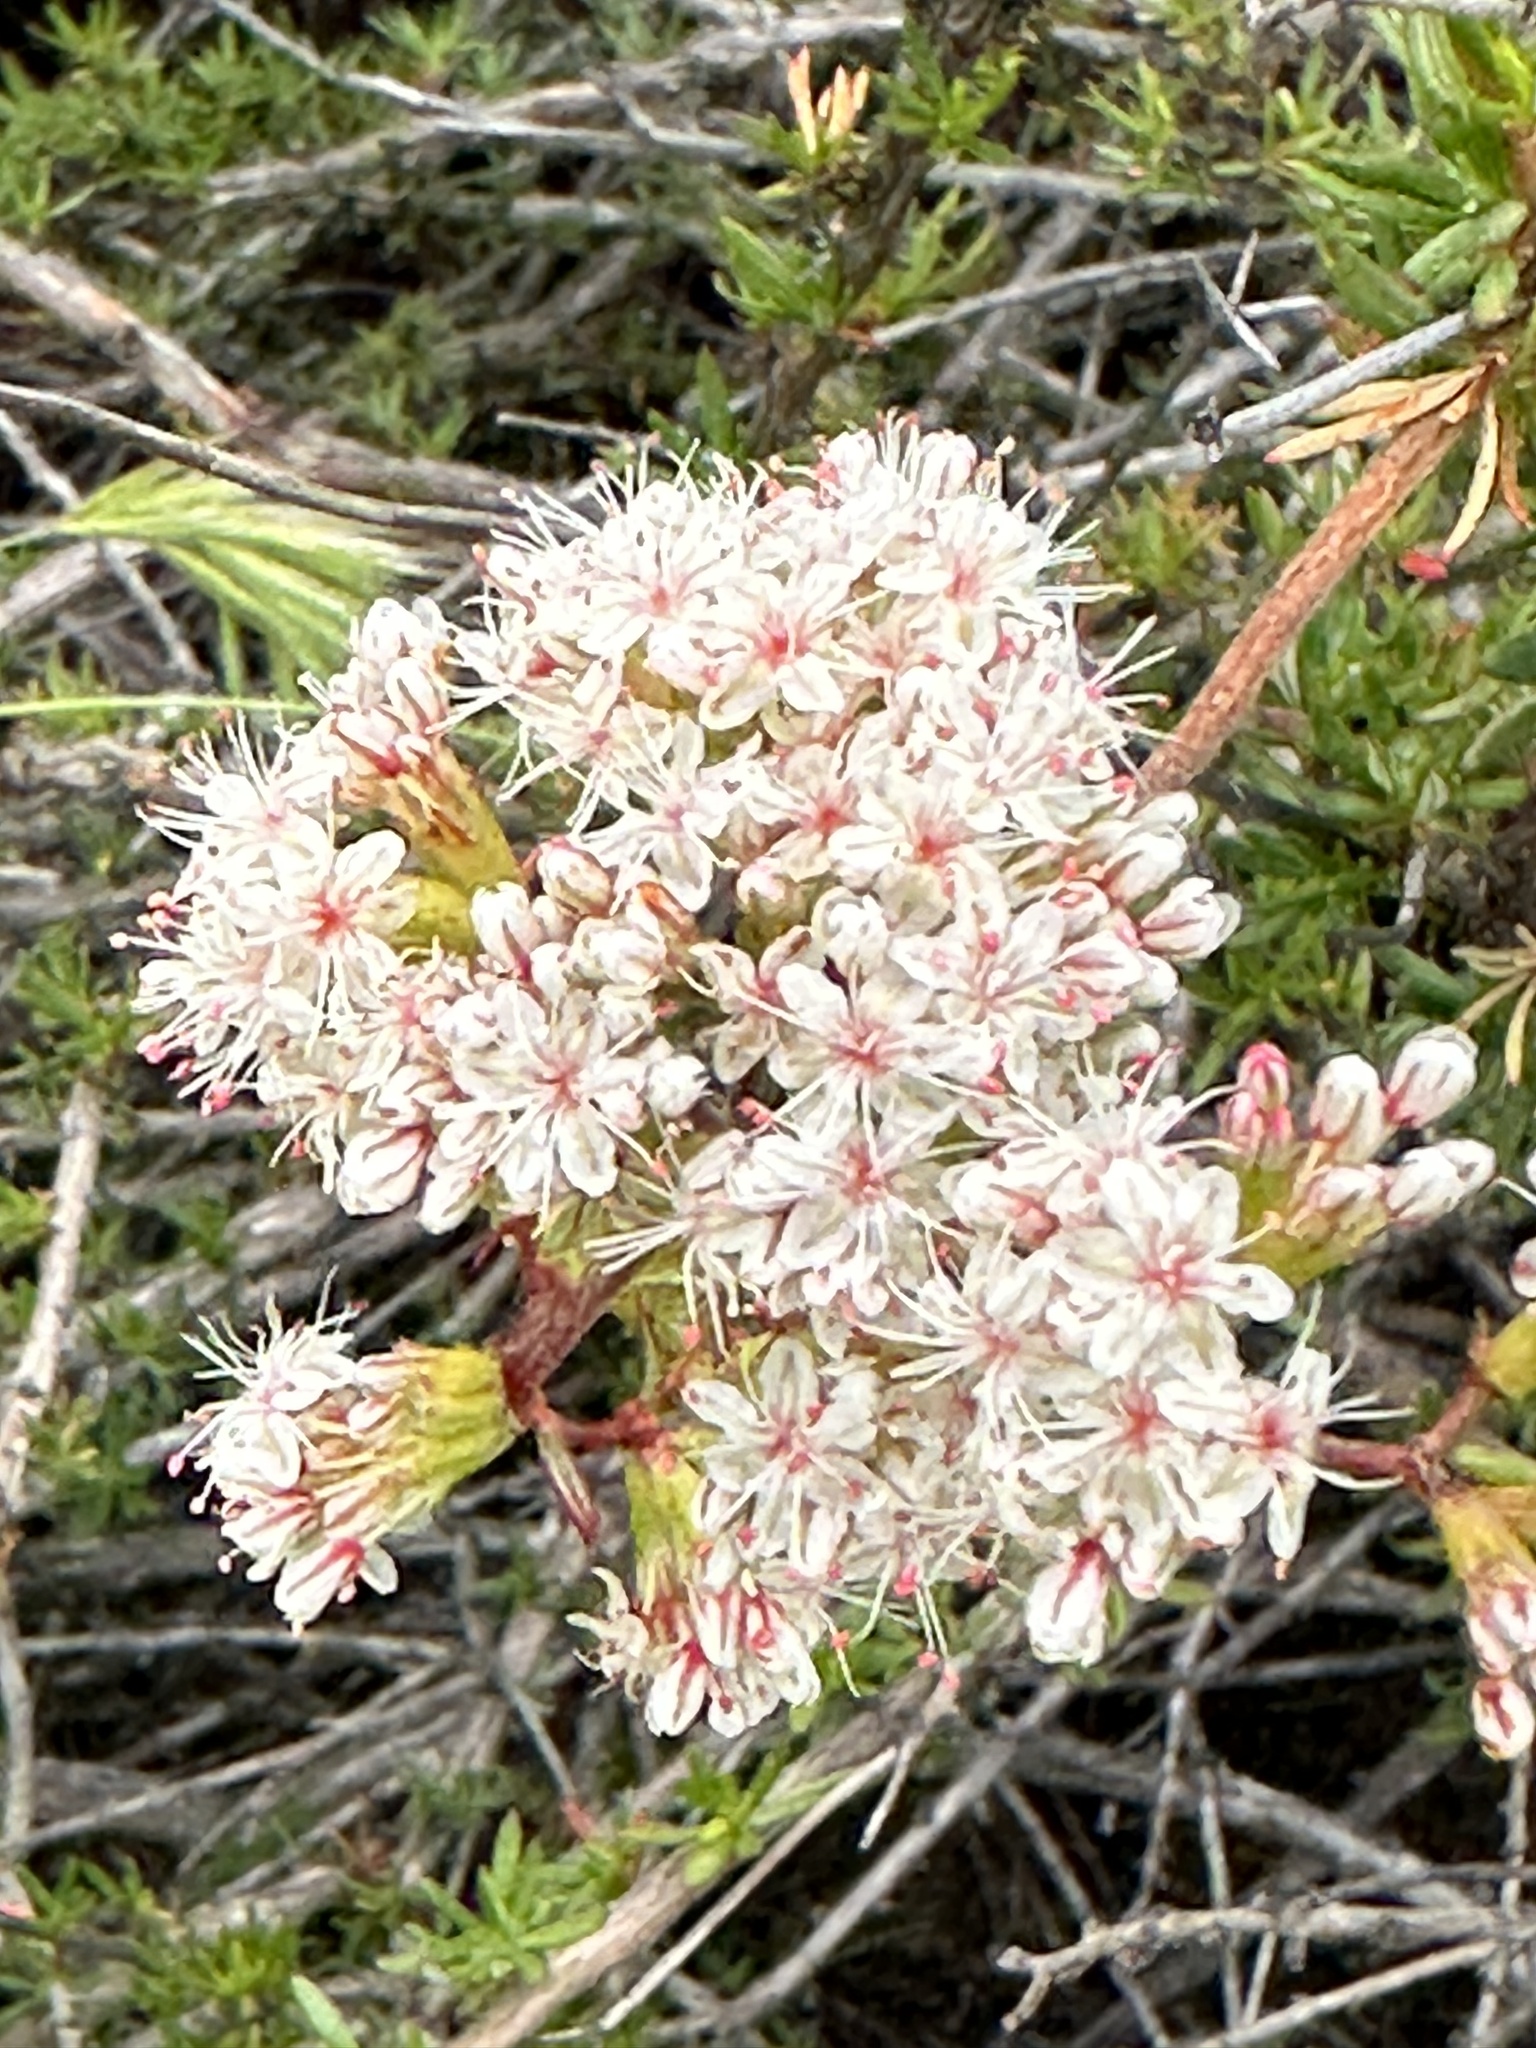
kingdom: Plantae
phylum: Tracheophyta
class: Magnoliopsida
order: Caryophyllales
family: Polygonaceae
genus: Eriogonum
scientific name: Eriogonum fasciculatum
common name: California wild buckwheat
